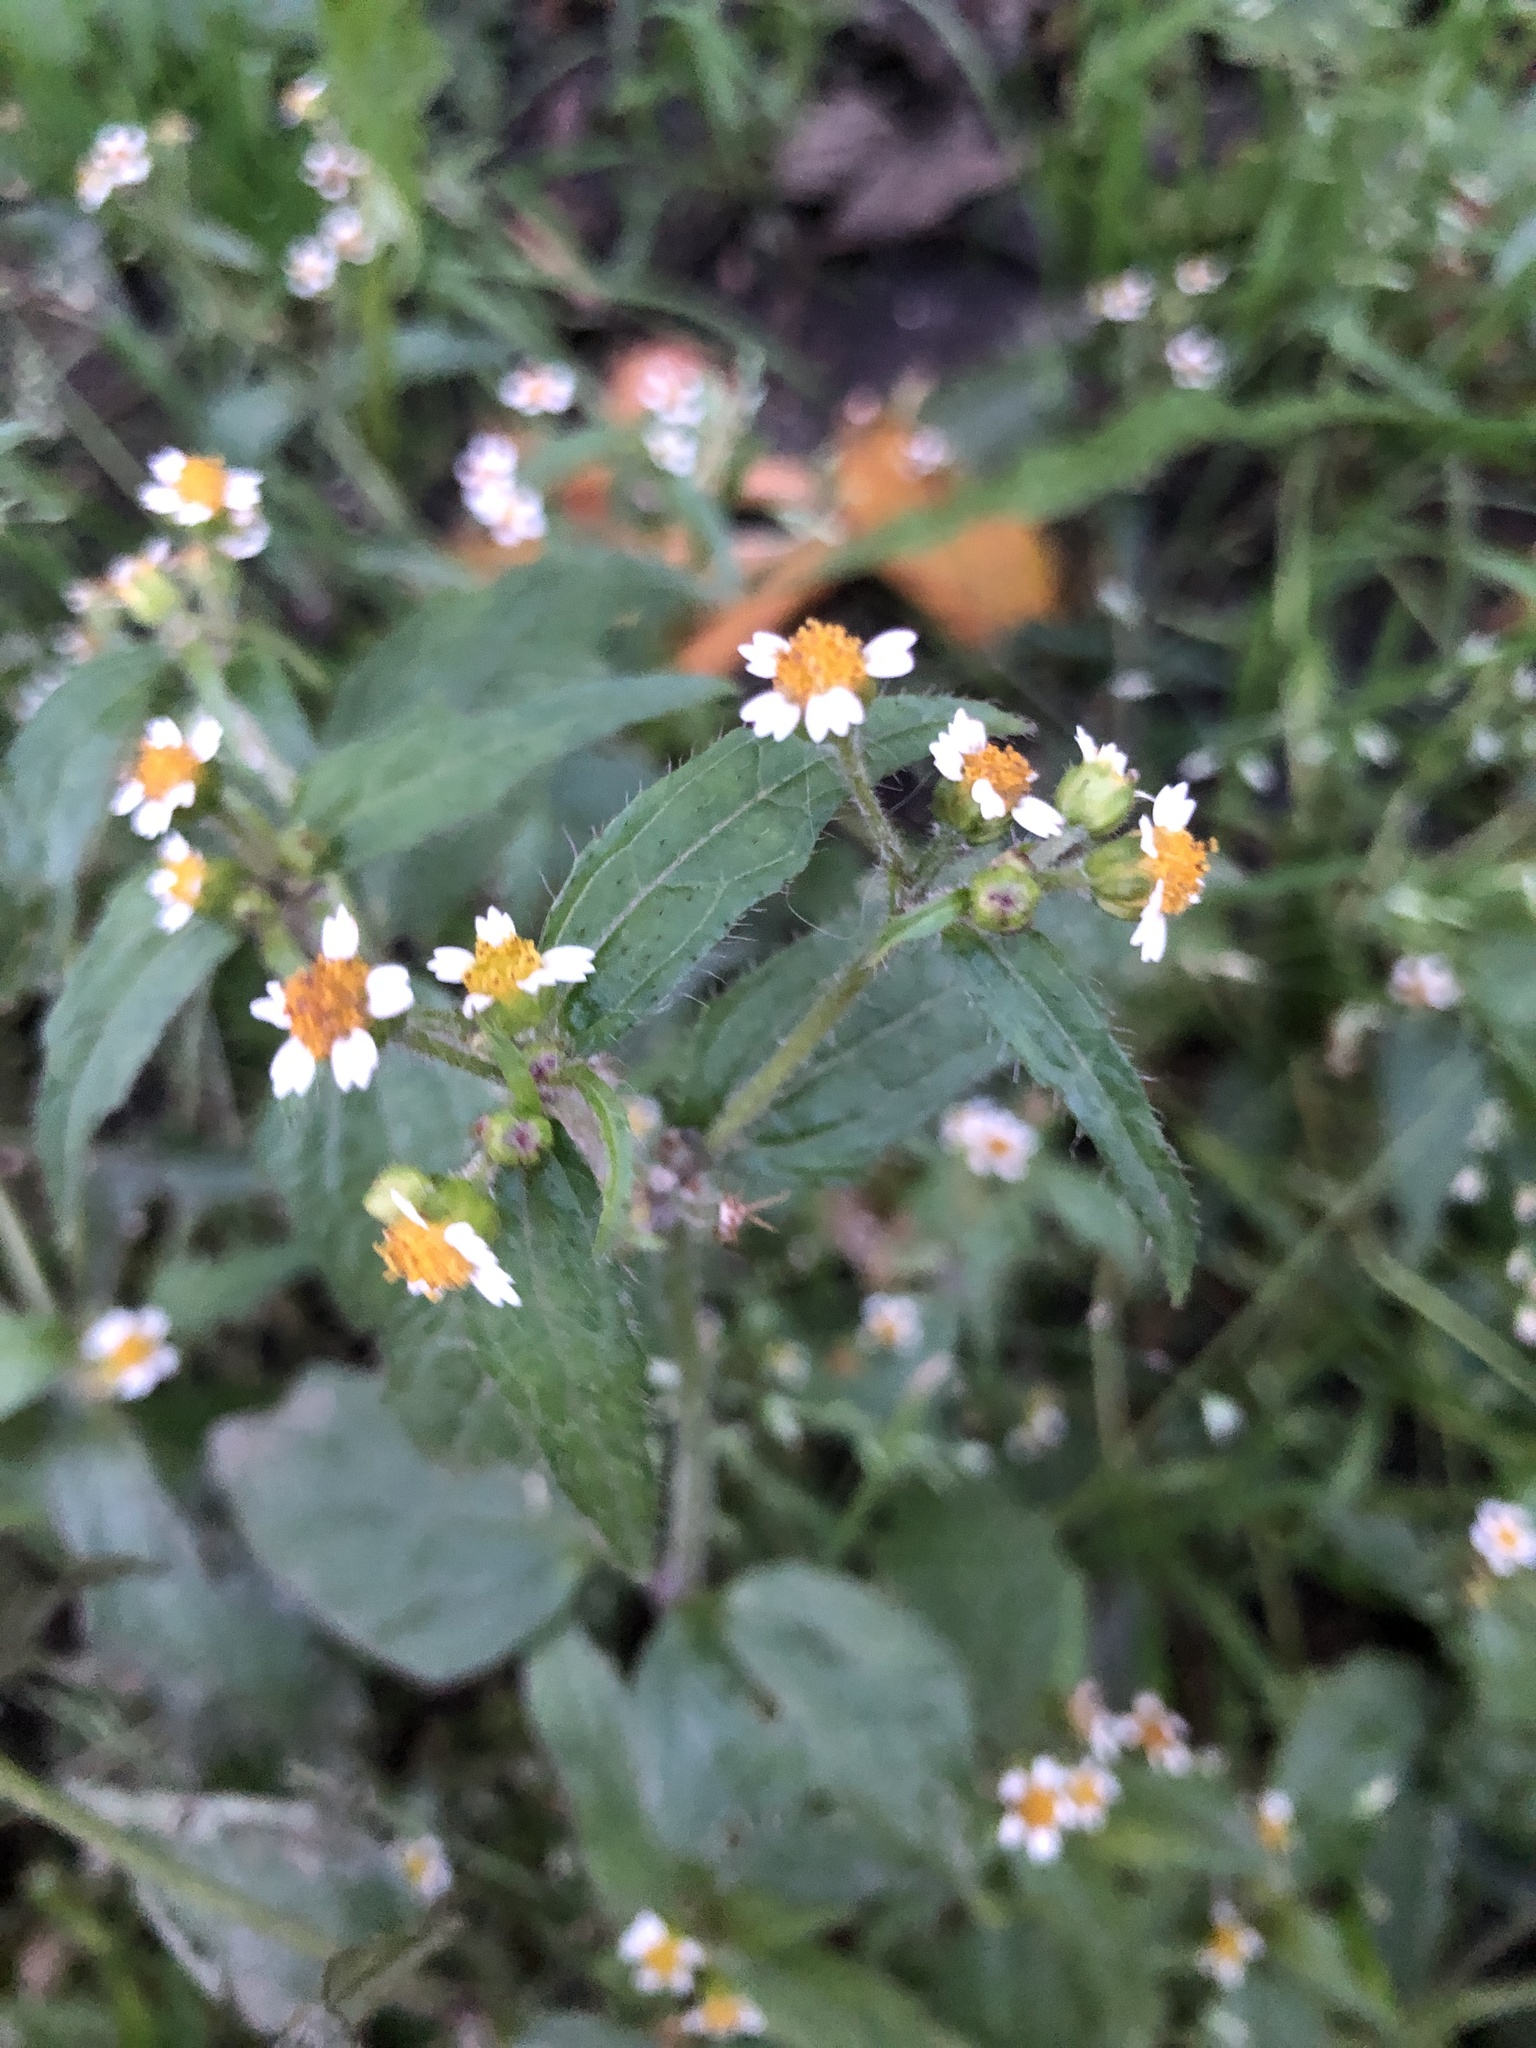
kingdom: Plantae
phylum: Tracheophyta
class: Magnoliopsida
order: Asterales
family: Asteraceae
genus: Galinsoga
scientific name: Galinsoga quadriradiata
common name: Shaggy soldier
